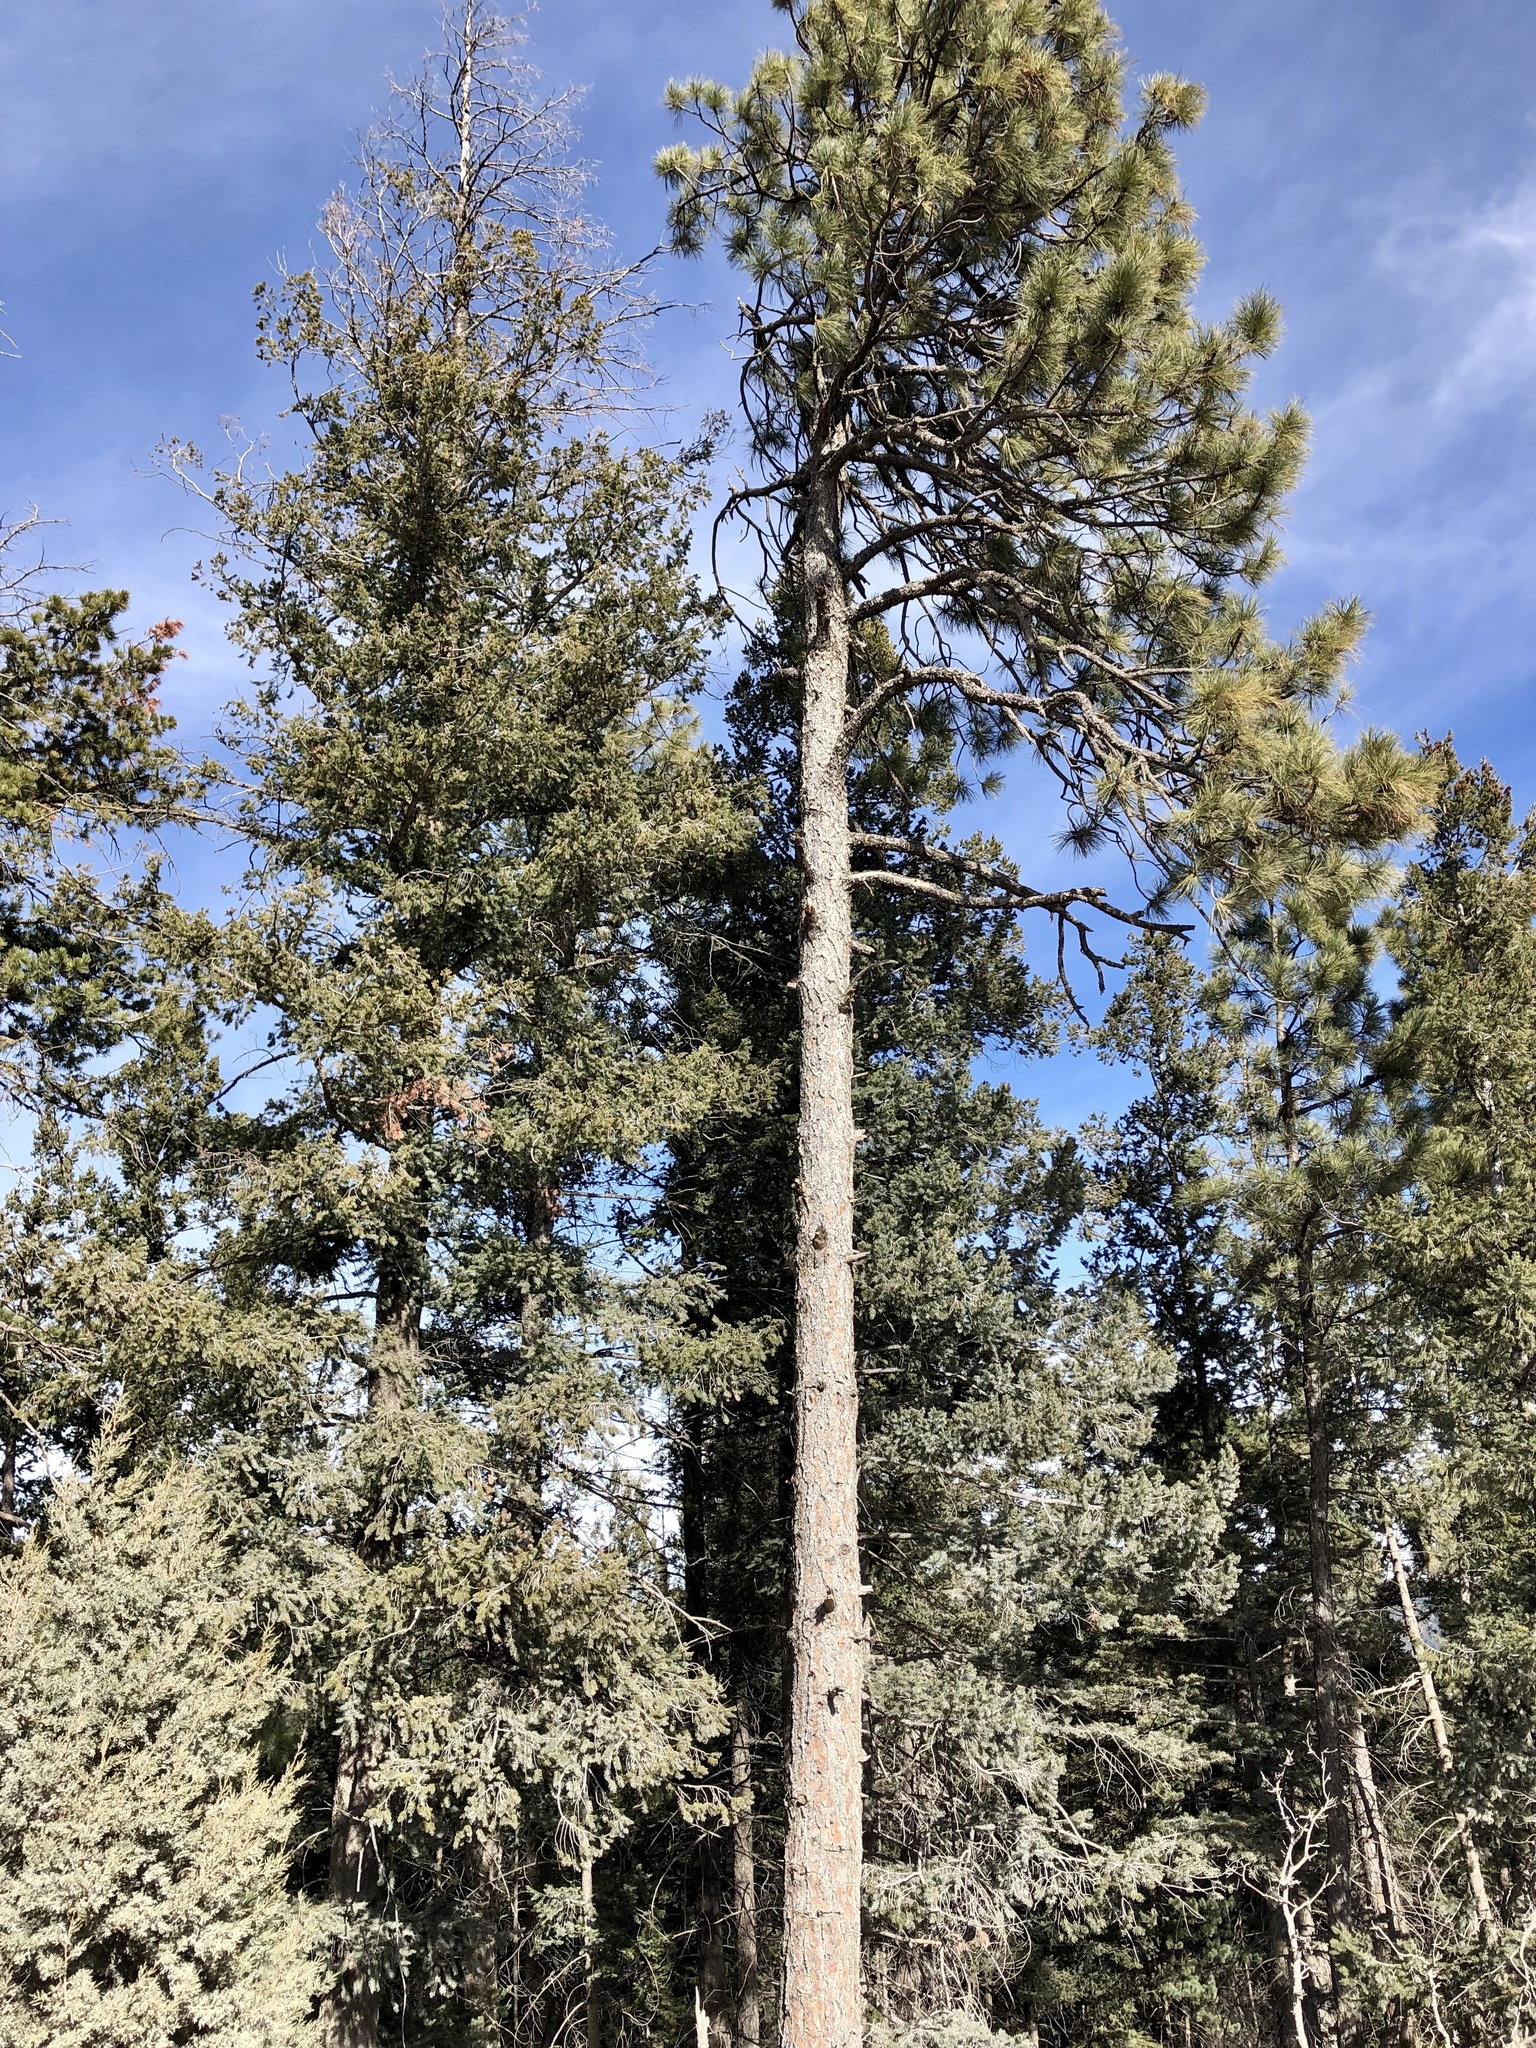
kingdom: Plantae
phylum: Tracheophyta
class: Pinopsida
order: Pinales
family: Pinaceae
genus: Pinus
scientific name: Pinus ponderosa
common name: Western yellow-pine
